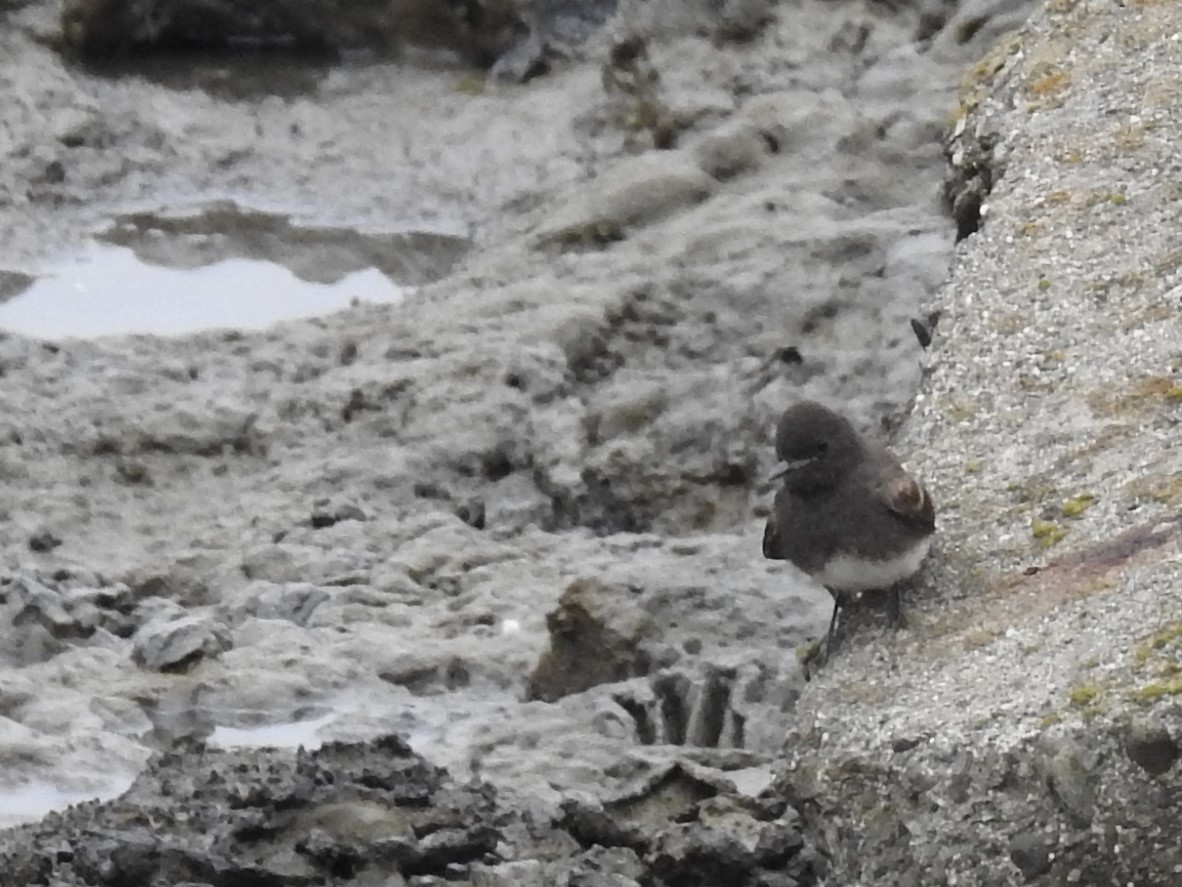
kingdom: Animalia
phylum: Chordata
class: Aves
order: Passeriformes
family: Tyrannidae
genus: Sayornis
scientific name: Sayornis nigricans
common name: Black phoebe
